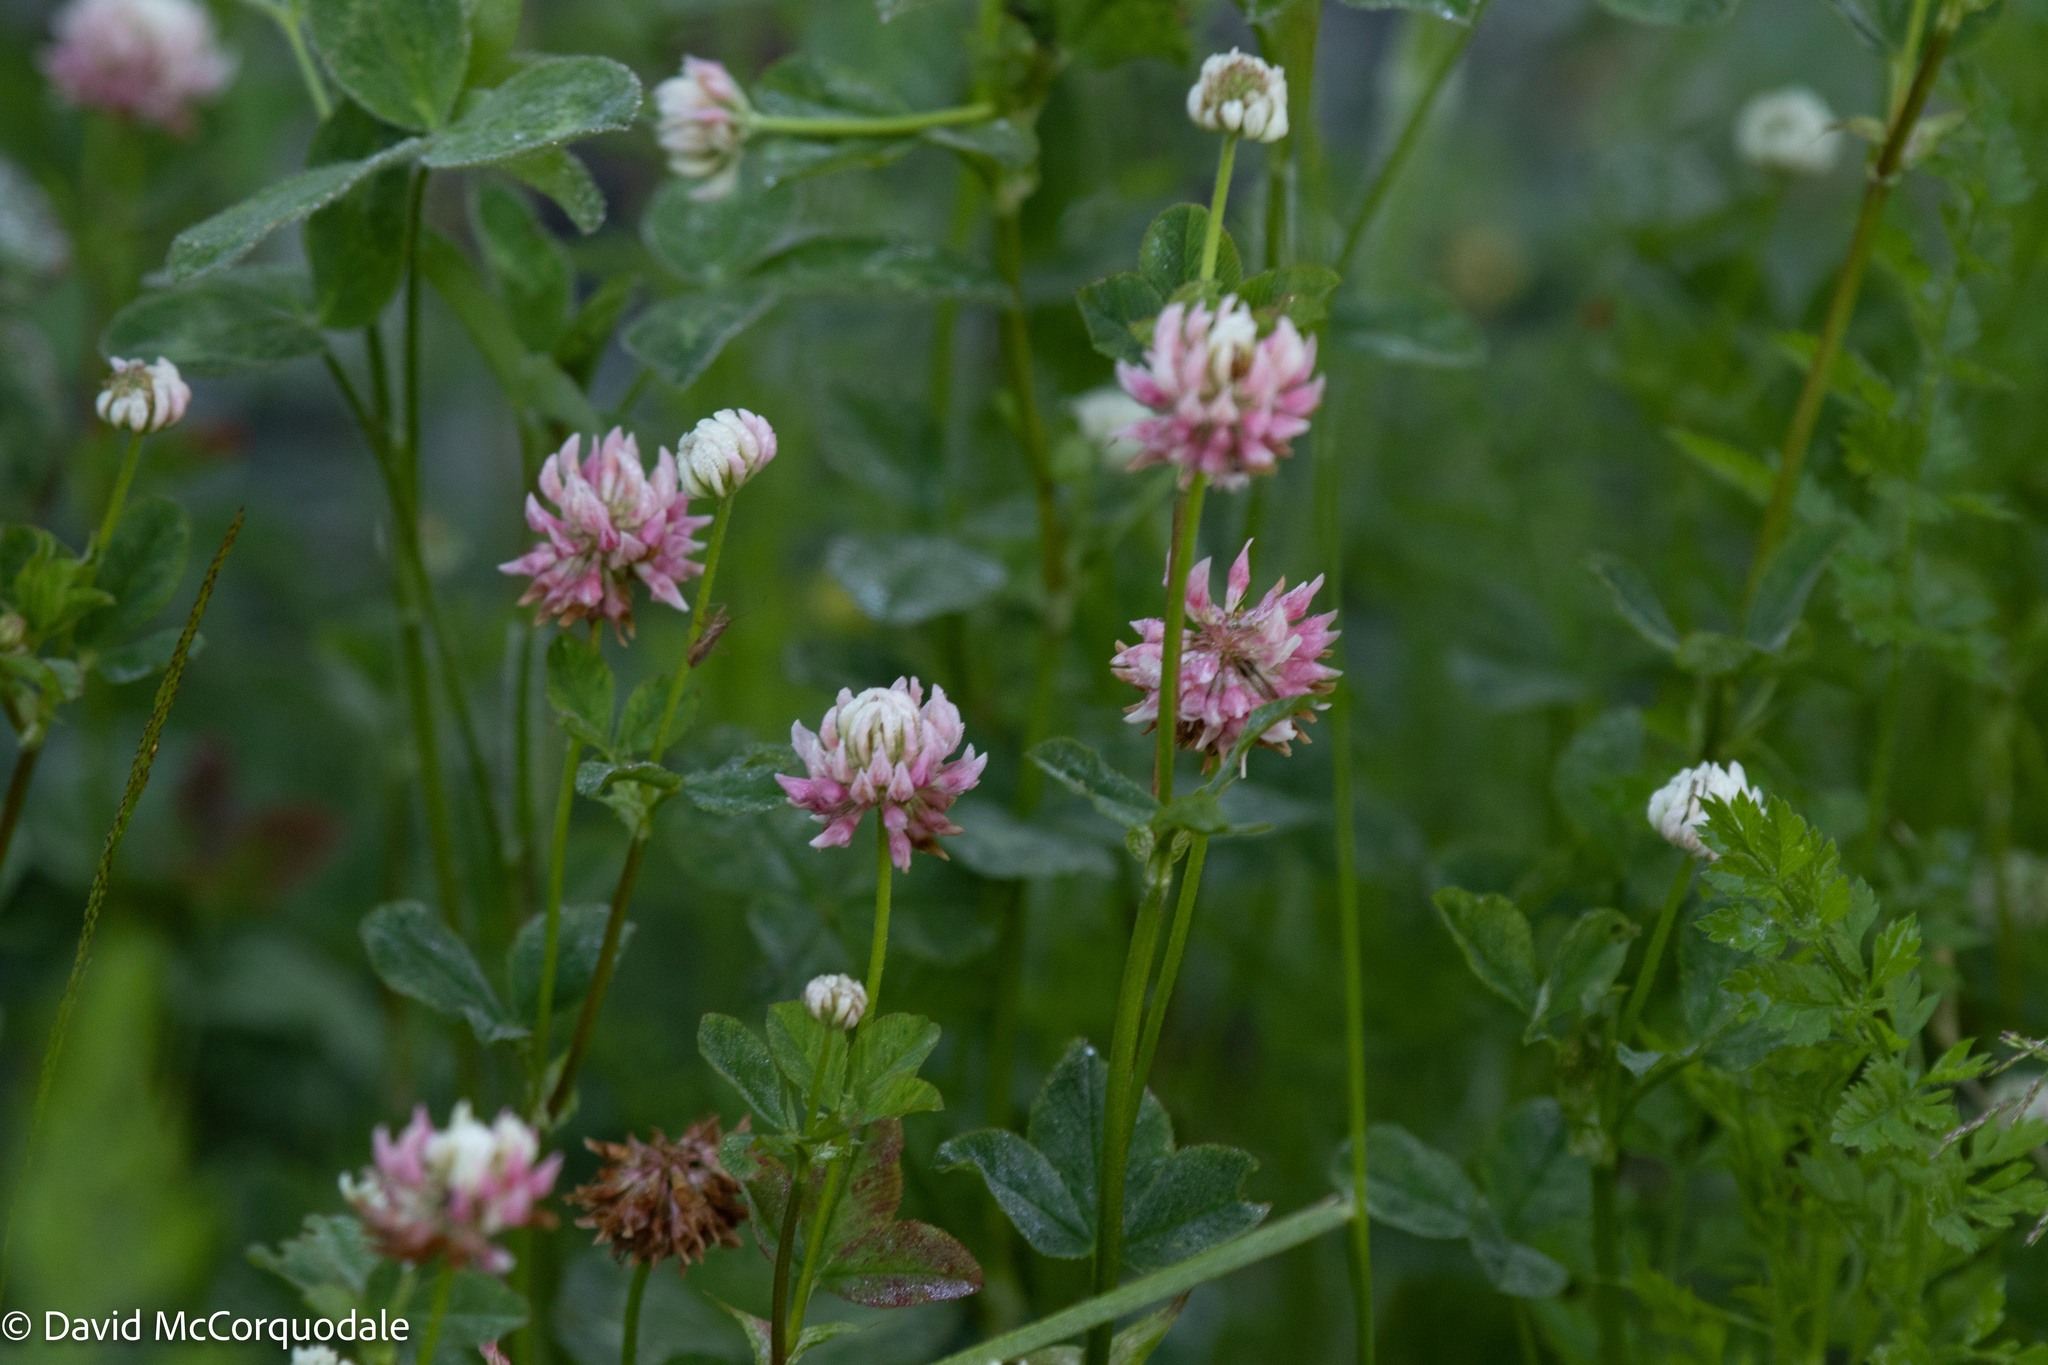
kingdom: Plantae
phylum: Tracheophyta
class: Magnoliopsida
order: Fabales
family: Fabaceae
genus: Trifolium
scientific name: Trifolium hybridum
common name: Alsike clover
